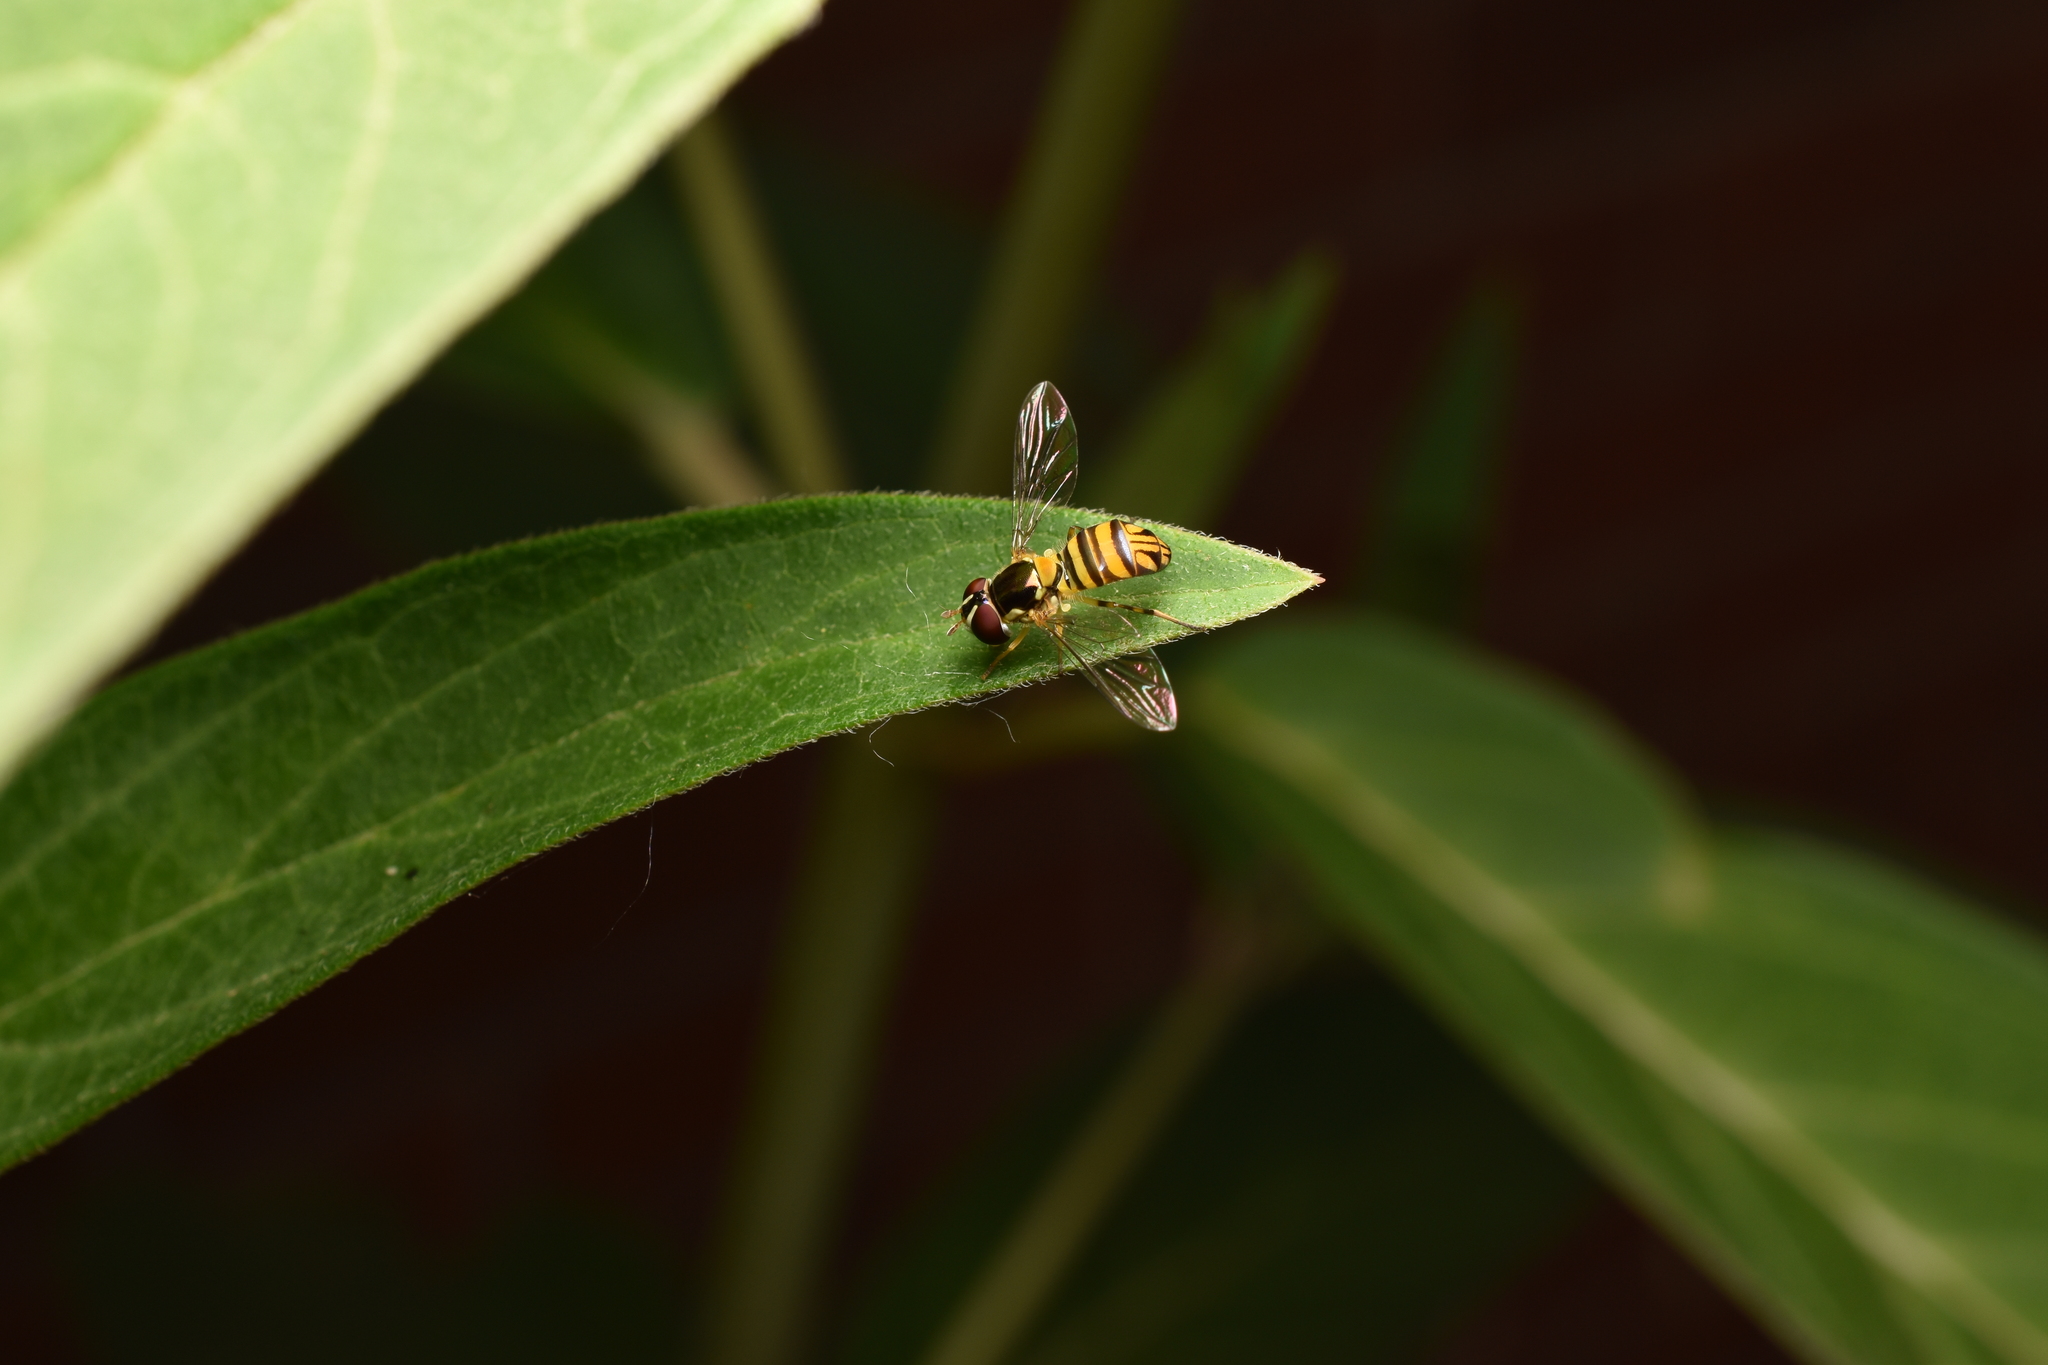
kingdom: Animalia
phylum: Arthropoda
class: Insecta
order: Diptera
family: Syrphidae
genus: Allograpta
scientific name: Allograpta obliqua
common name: Common oblique syrphid
